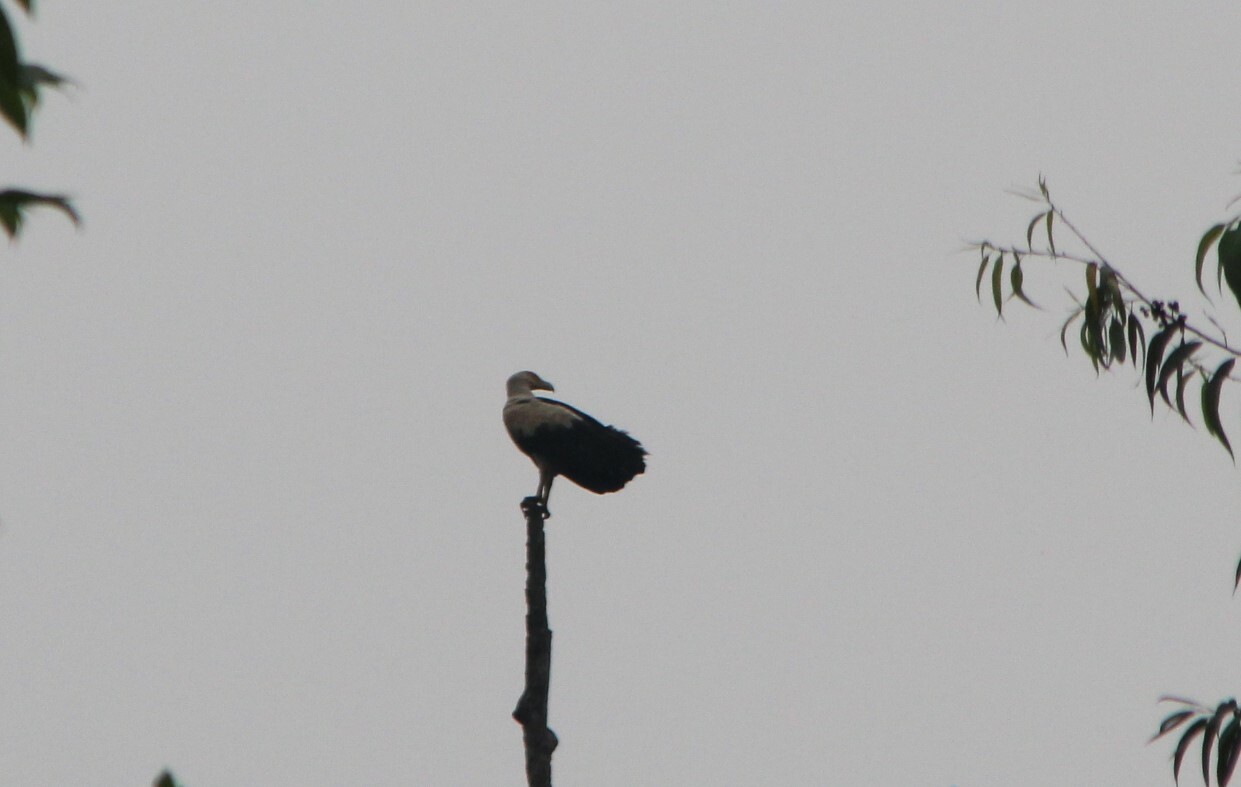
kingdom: Animalia
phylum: Chordata
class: Aves
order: Accipitriformes
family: Accipitridae
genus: Gypohierax
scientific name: Gypohierax angolensis
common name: Palm-nut vulture
